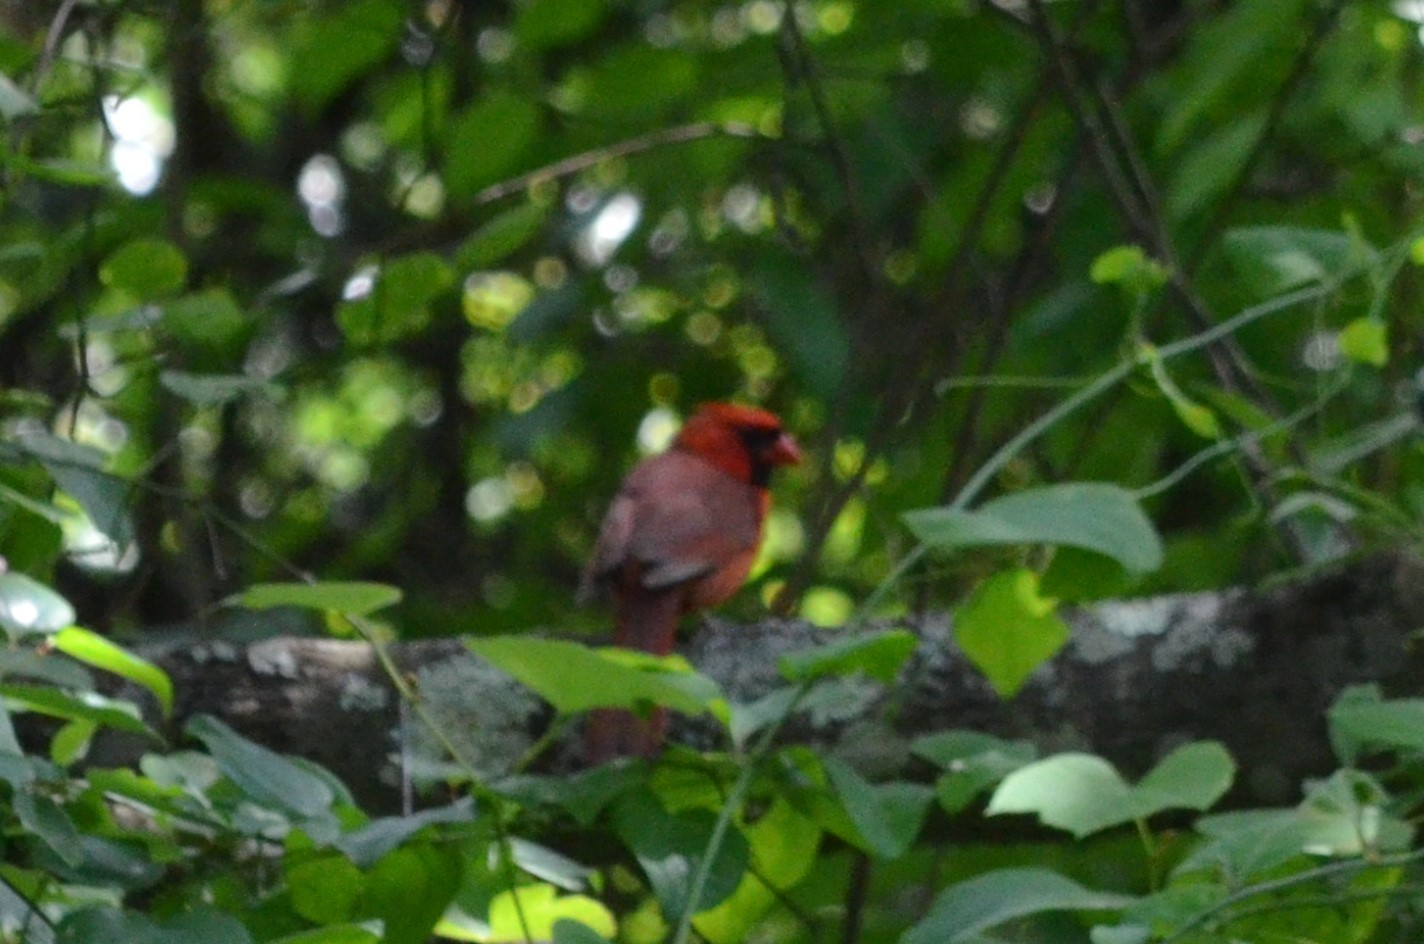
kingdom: Animalia
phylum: Chordata
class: Aves
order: Passeriformes
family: Cardinalidae
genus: Cardinalis
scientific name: Cardinalis cardinalis
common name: Northern cardinal
